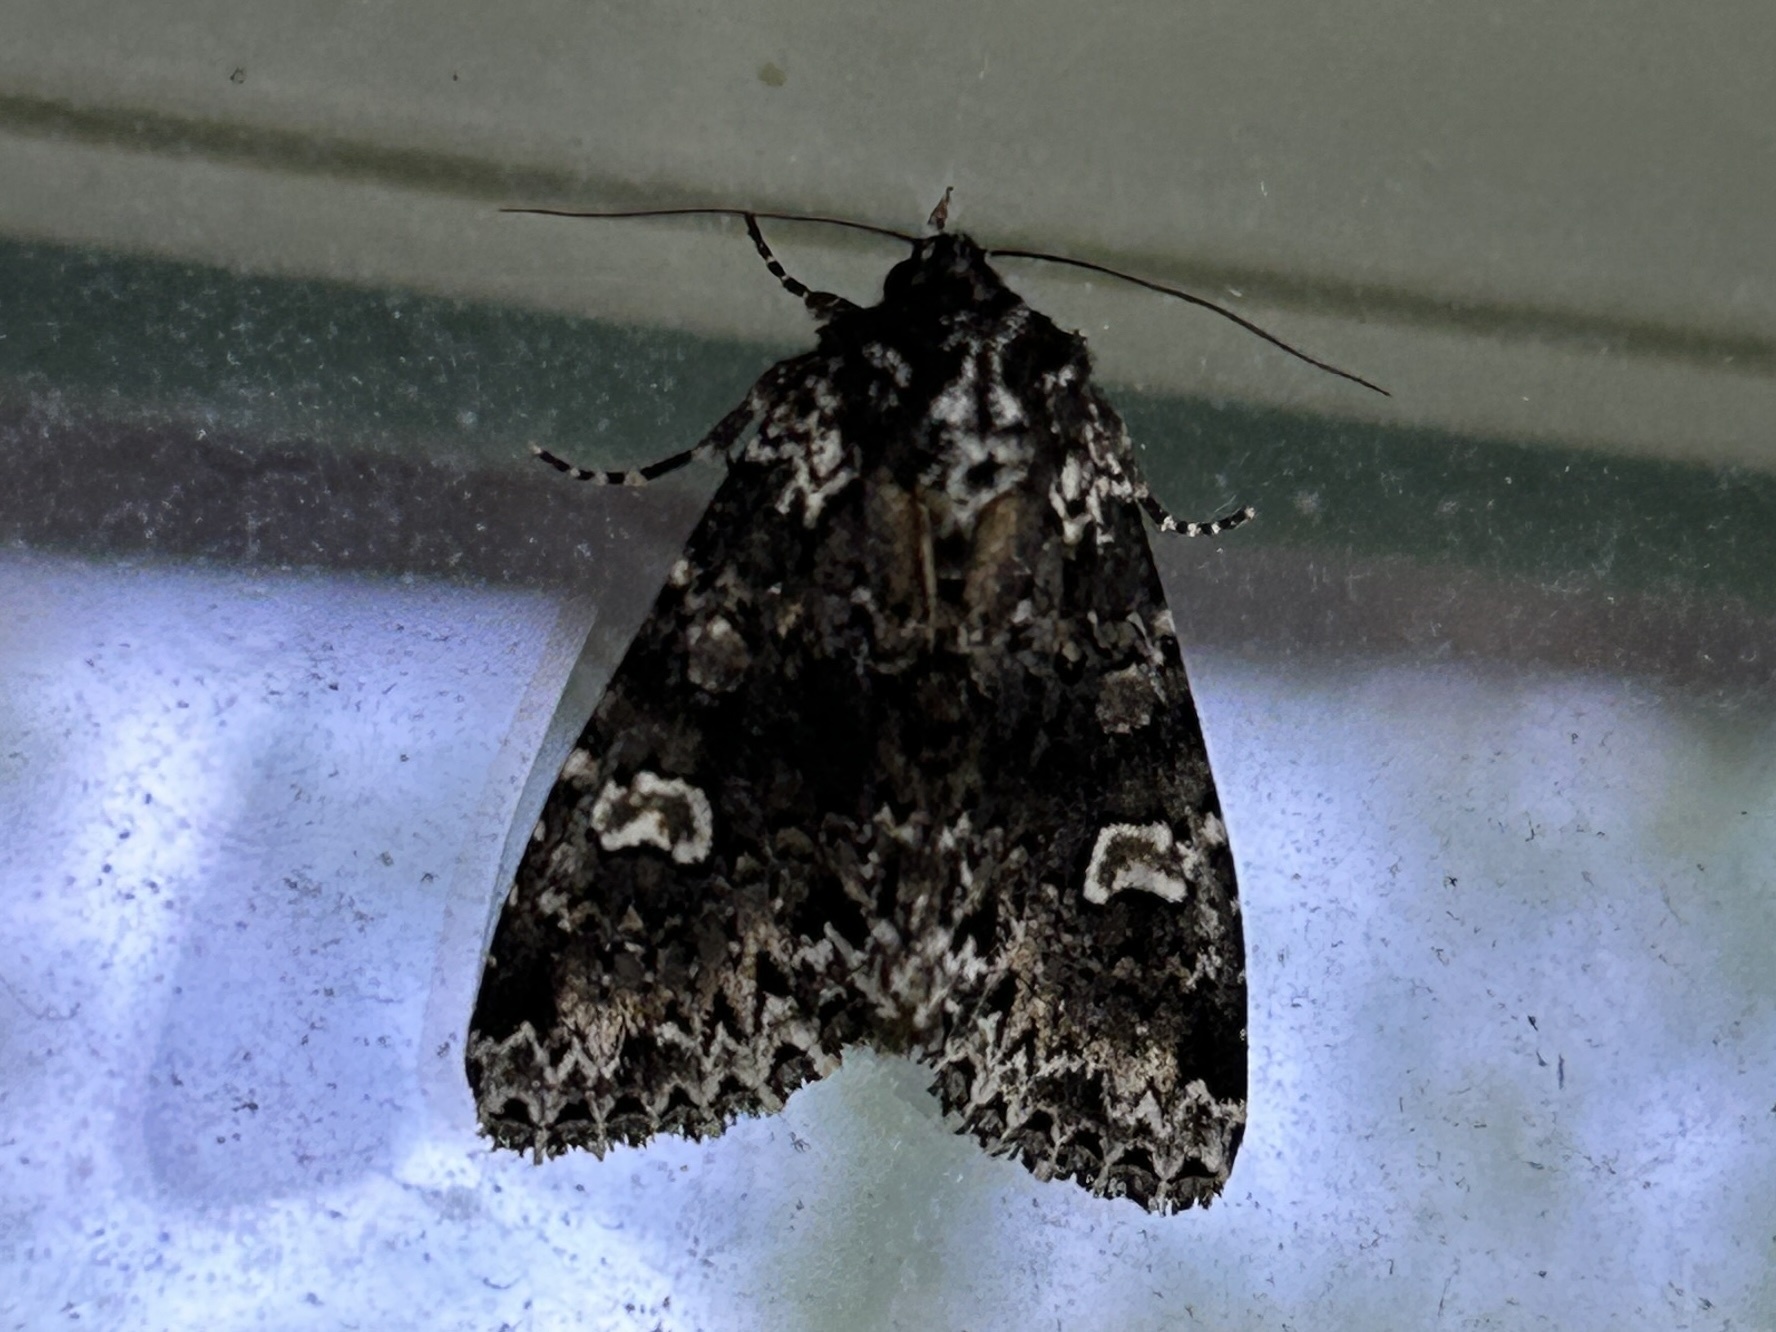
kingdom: Animalia
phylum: Arthropoda
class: Insecta
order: Lepidoptera
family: Noctuidae
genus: Melanchra
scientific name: Melanchra adjuncta
